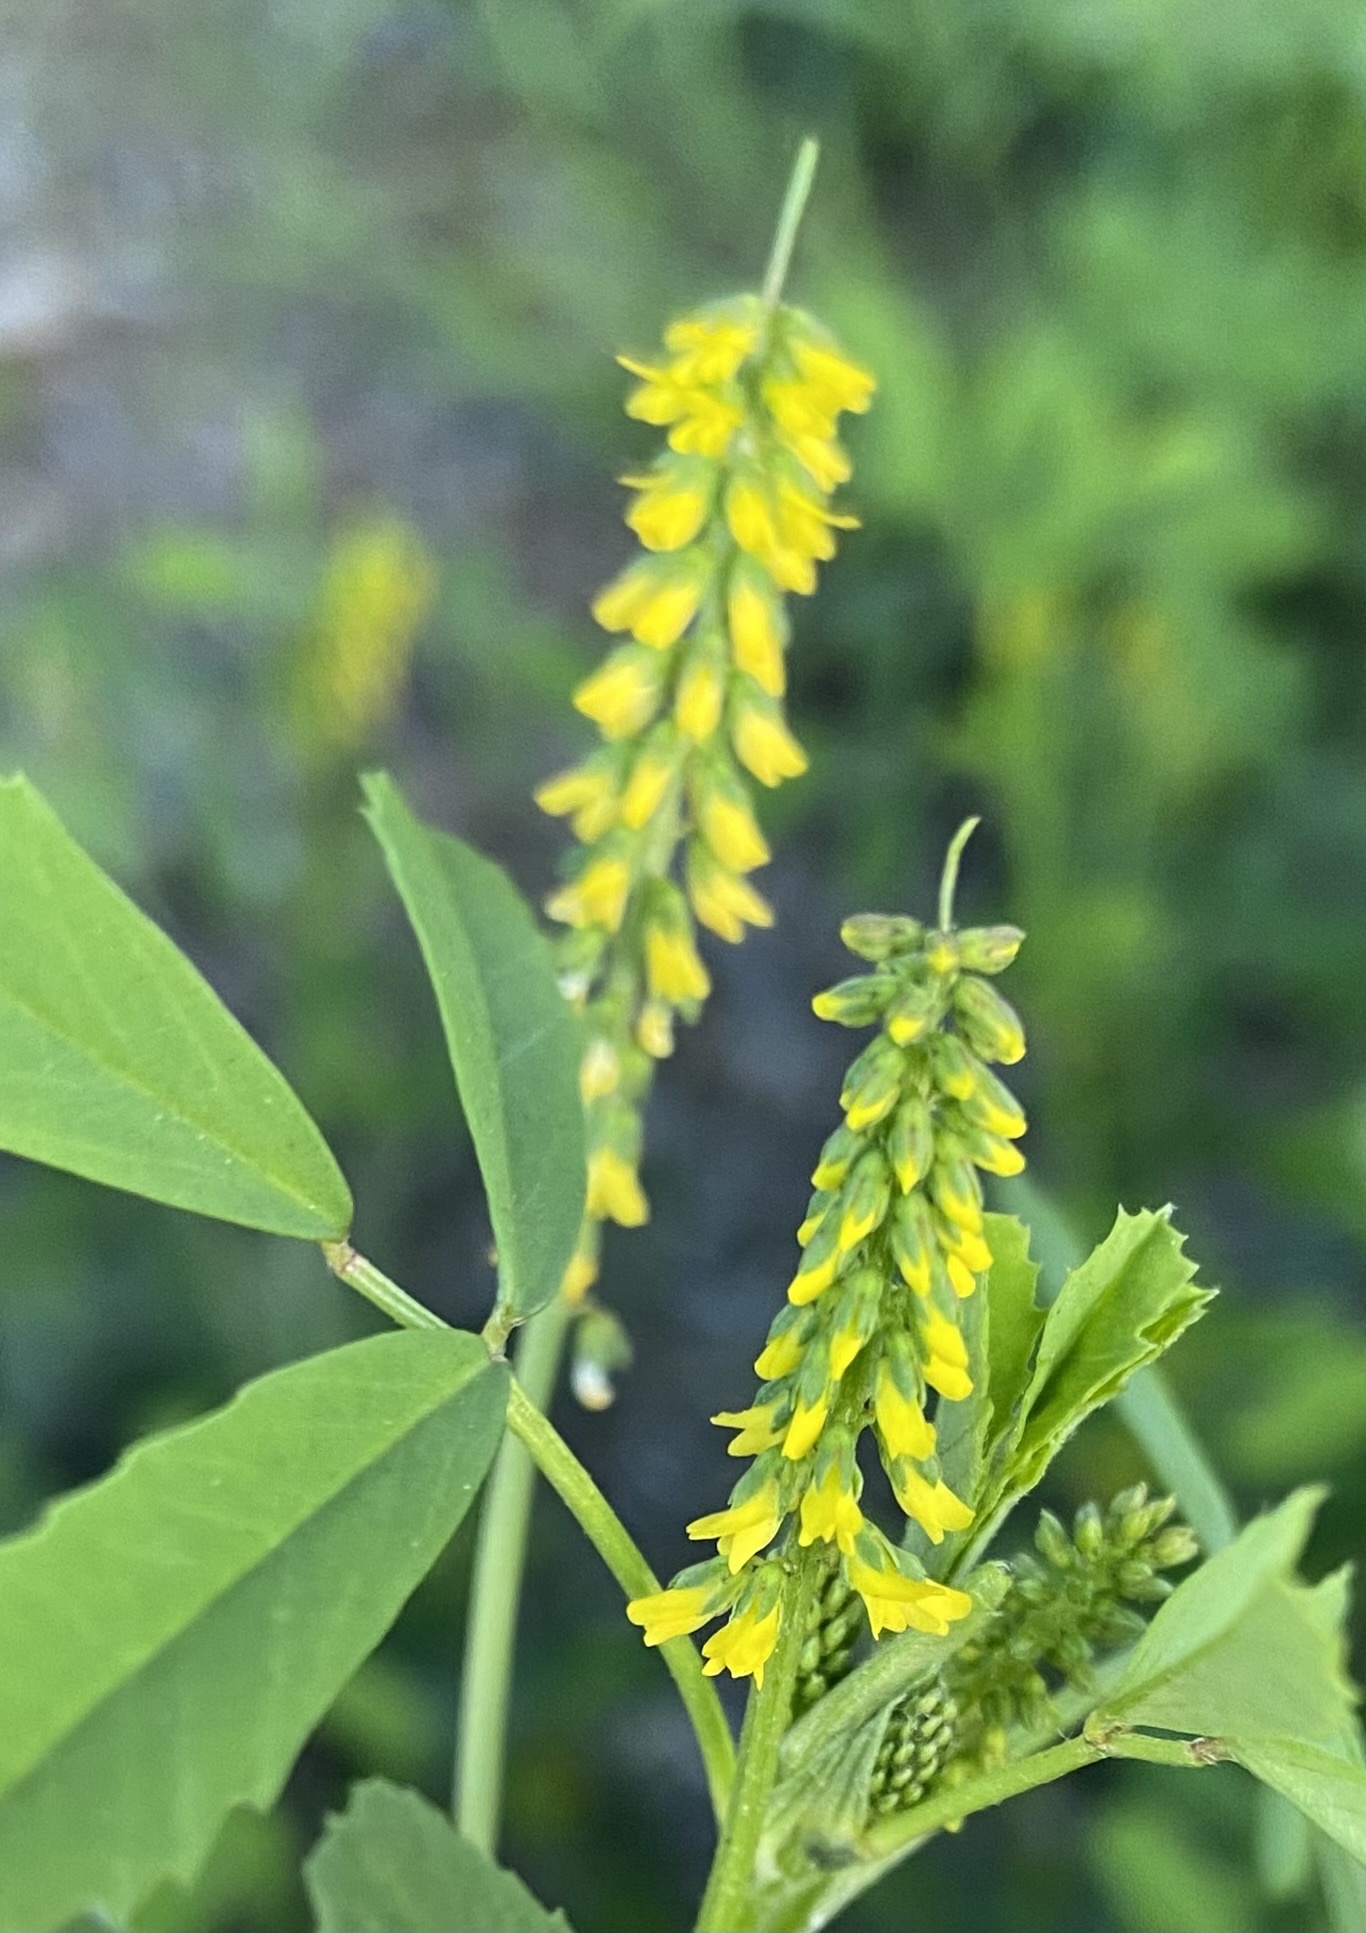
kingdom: Plantae
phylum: Tracheophyta
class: Magnoliopsida
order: Fabales
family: Fabaceae
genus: Melilotus
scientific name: Melilotus indicus
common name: Small melilot
